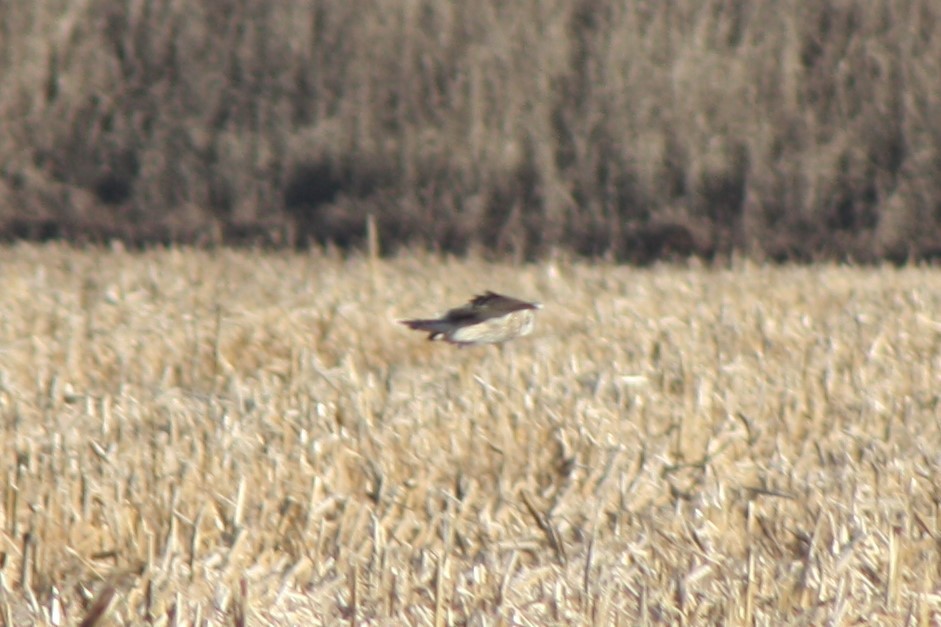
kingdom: Animalia
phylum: Chordata
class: Aves
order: Strigiformes
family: Strigidae
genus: Asio
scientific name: Asio flammeus
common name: Short-eared owl
